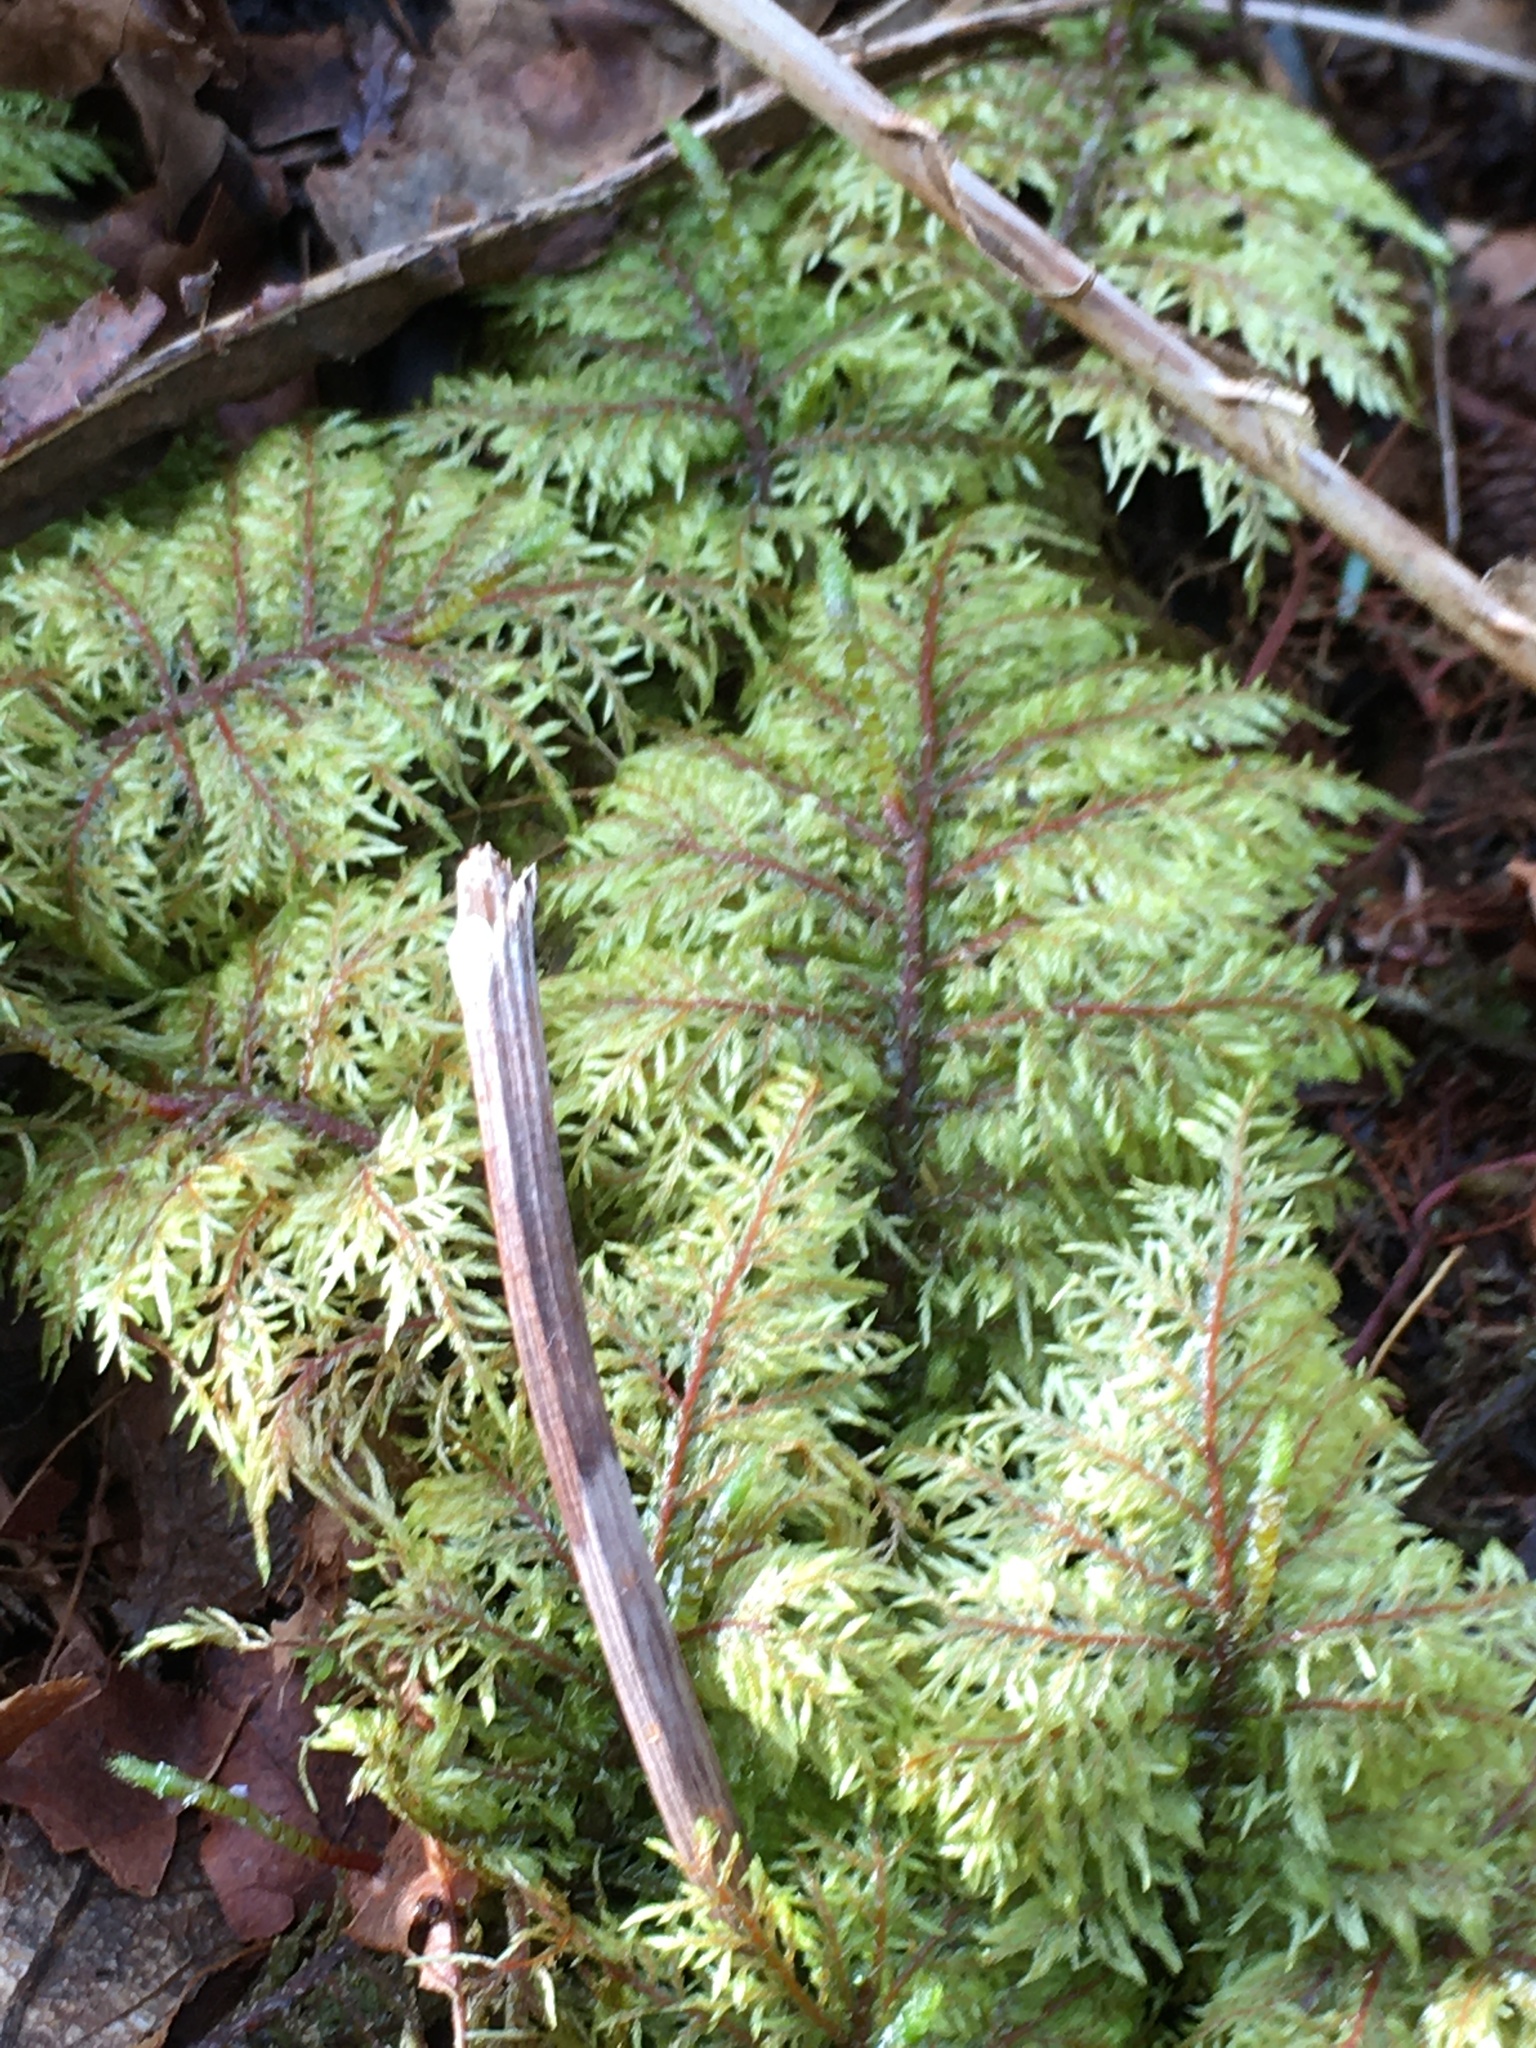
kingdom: Plantae
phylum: Bryophyta
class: Bryopsida
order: Hypnales
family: Hylocomiaceae
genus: Hylocomium
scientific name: Hylocomium splendens
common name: Stairstep moss
